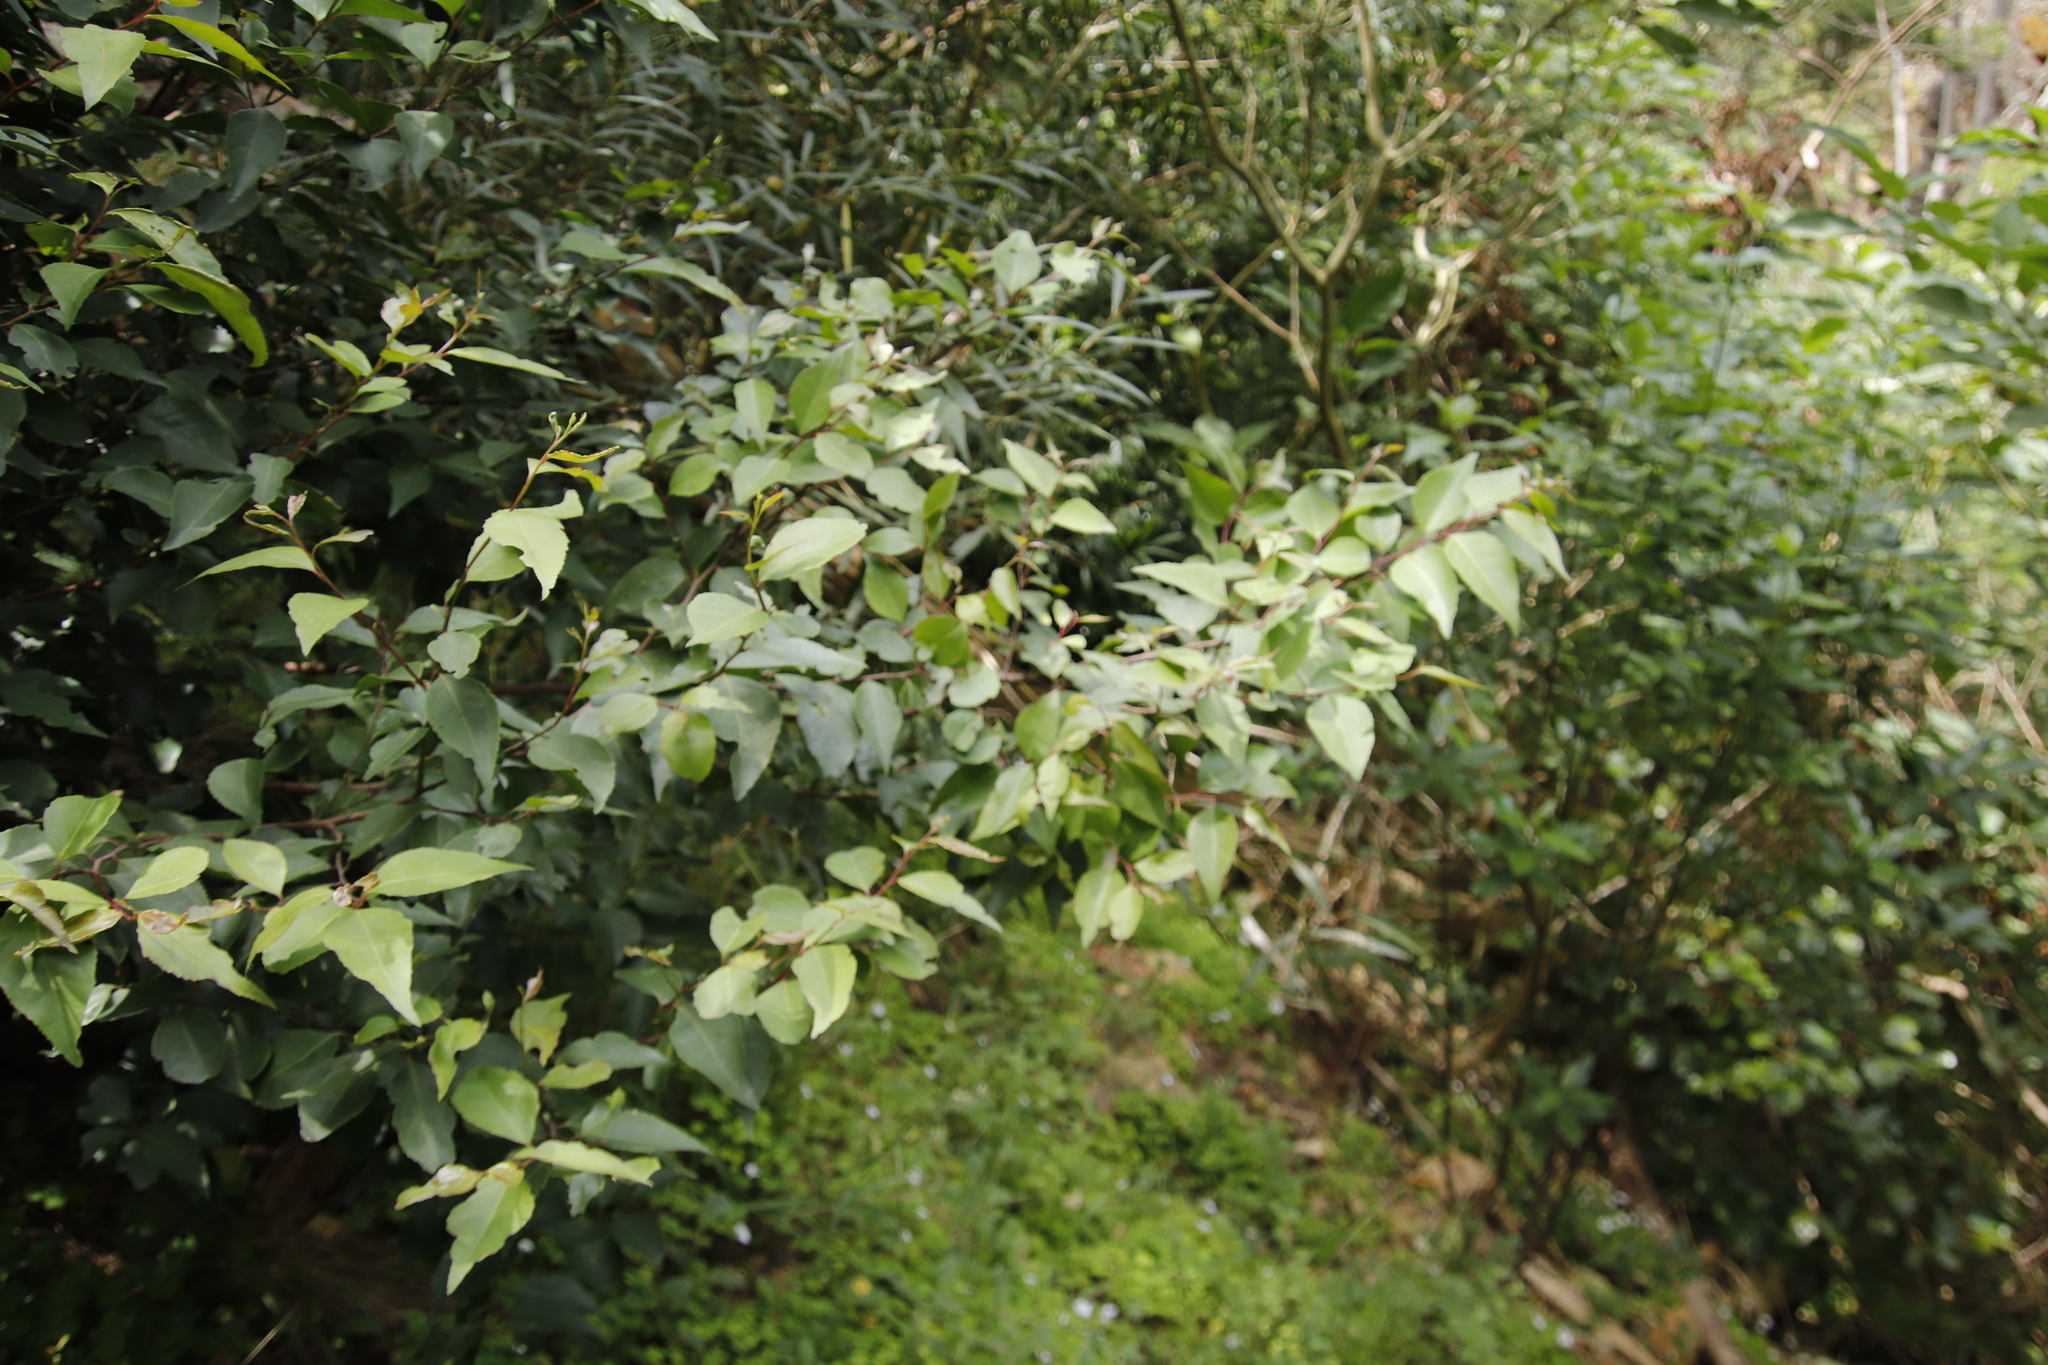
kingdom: Plantae
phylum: Tracheophyta
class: Magnoliopsida
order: Celastrales
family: Celastraceae
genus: Gymnosporia
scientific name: Gymnosporia acuminata
